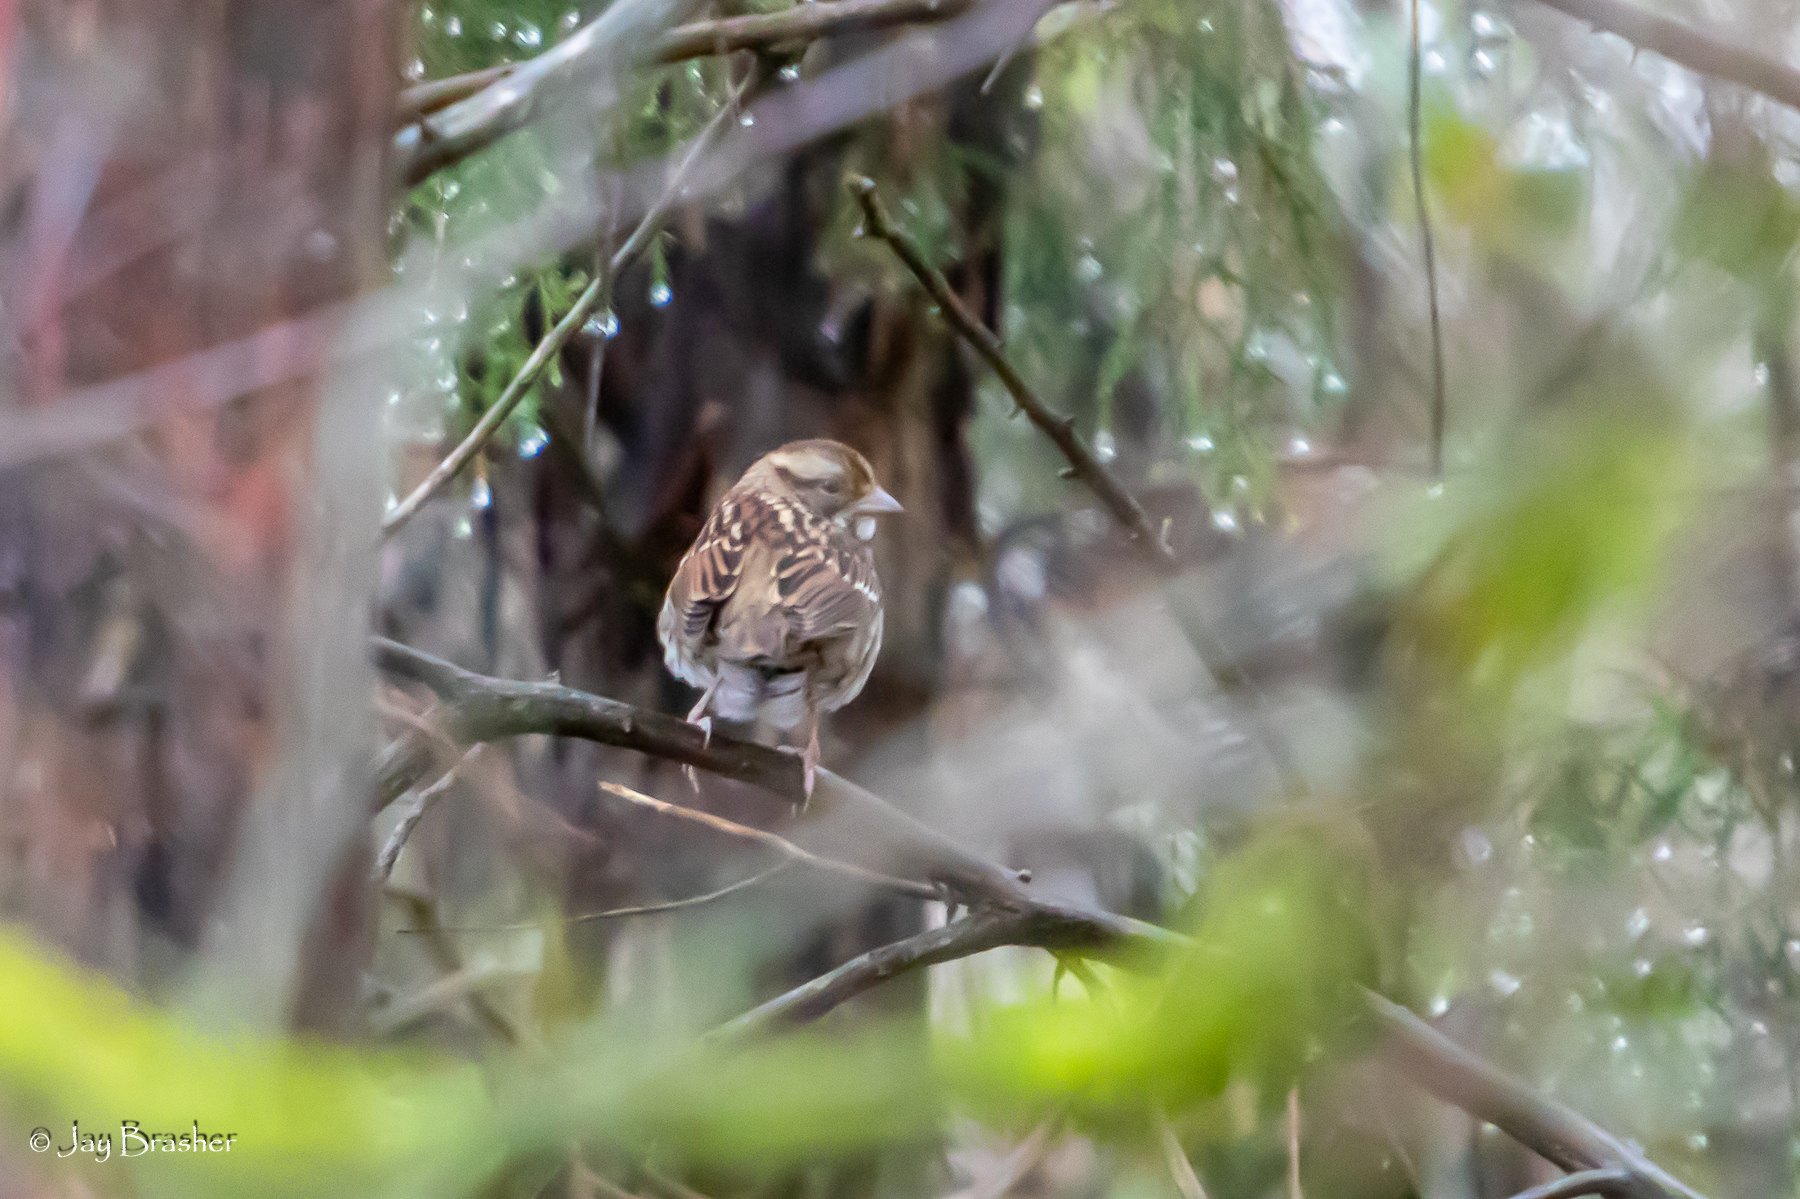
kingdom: Animalia
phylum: Chordata
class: Aves
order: Passeriformes
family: Passerellidae
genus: Zonotrichia
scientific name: Zonotrichia albicollis
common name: White-throated sparrow
